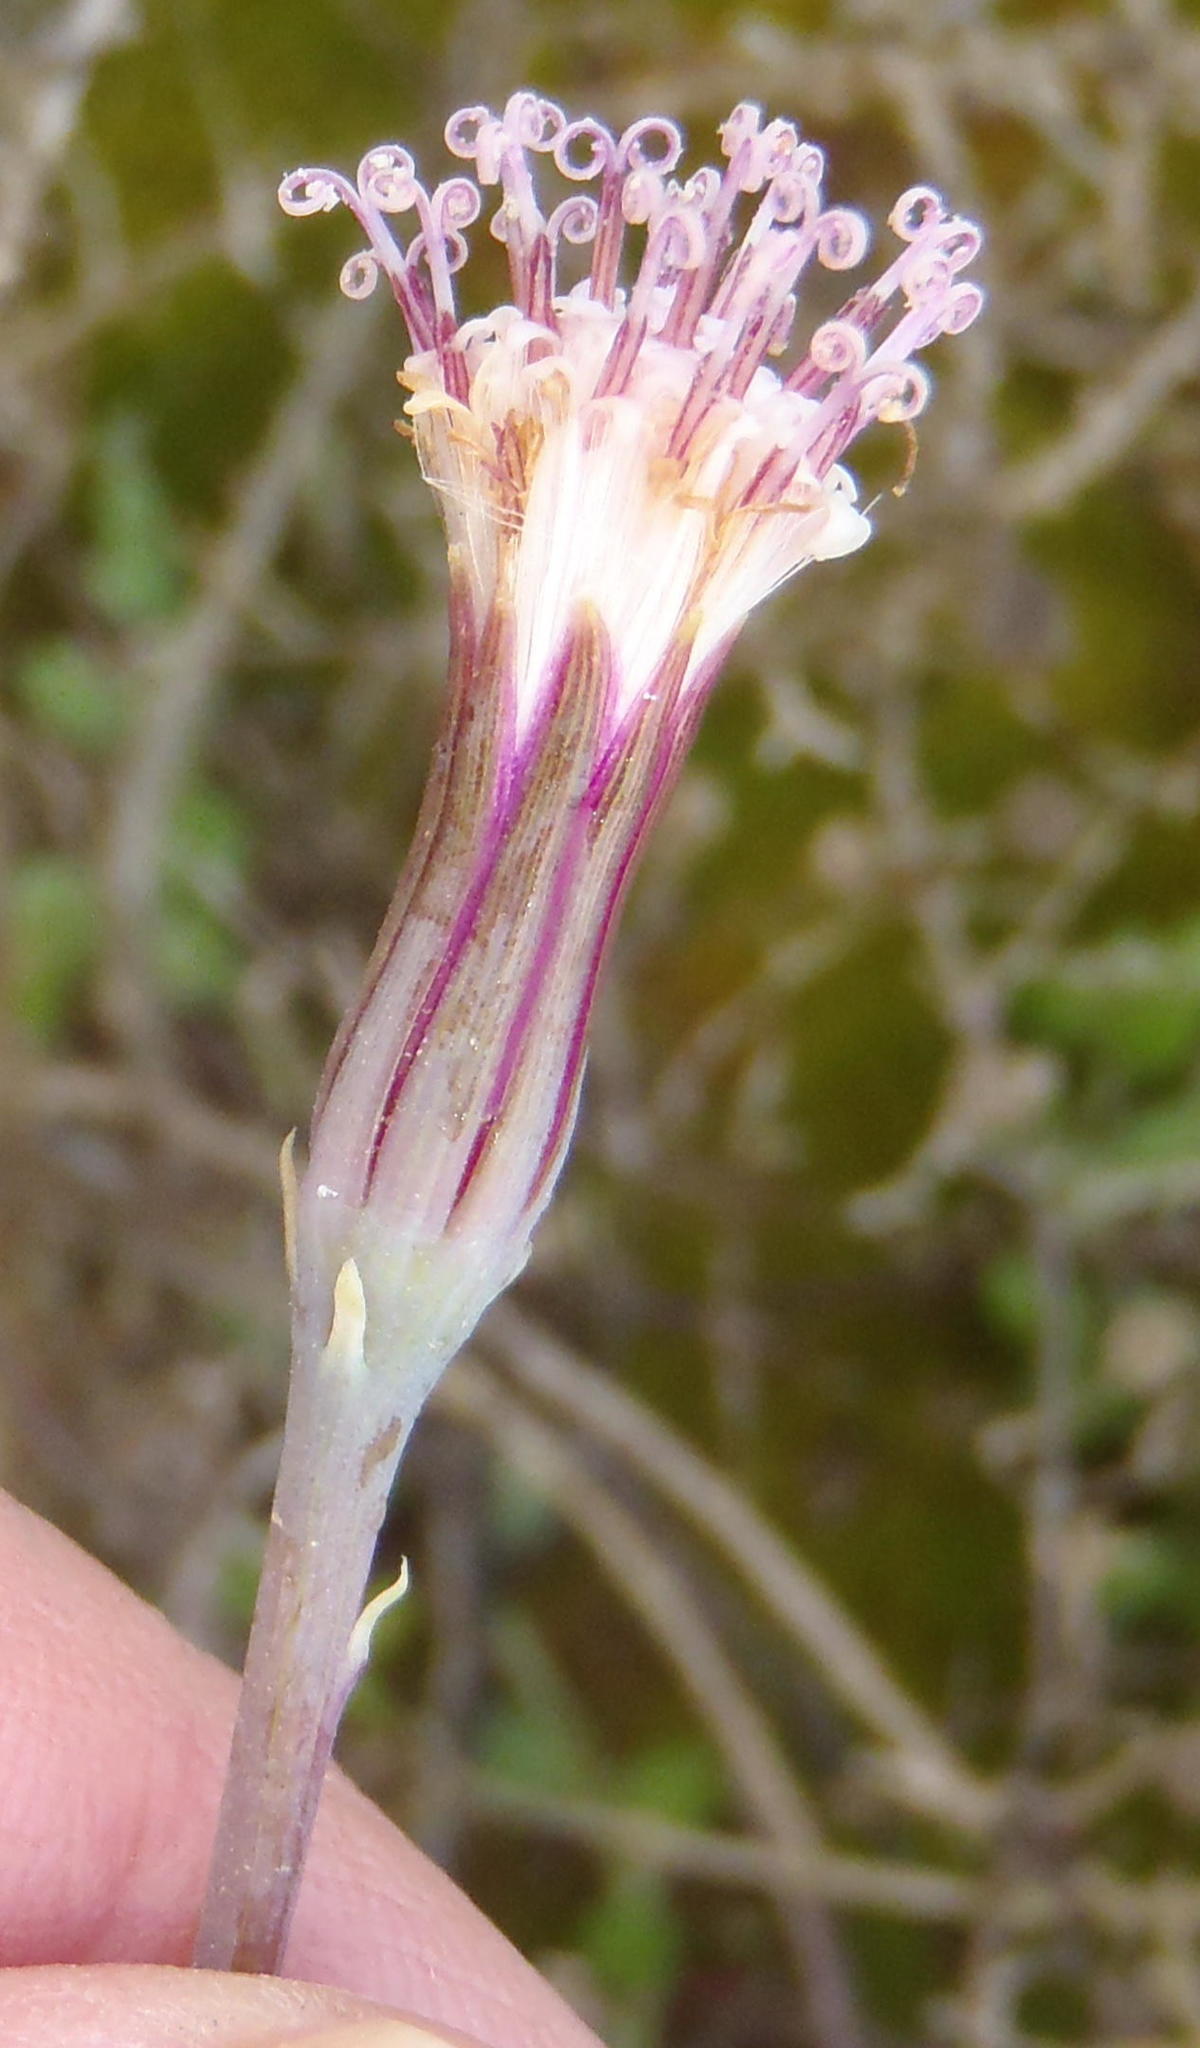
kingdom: Plantae
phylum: Tracheophyta
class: Magnoliopsida
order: Asterales
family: Asteraceae
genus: Curio
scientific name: Curio radicans
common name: Creeping-berry
